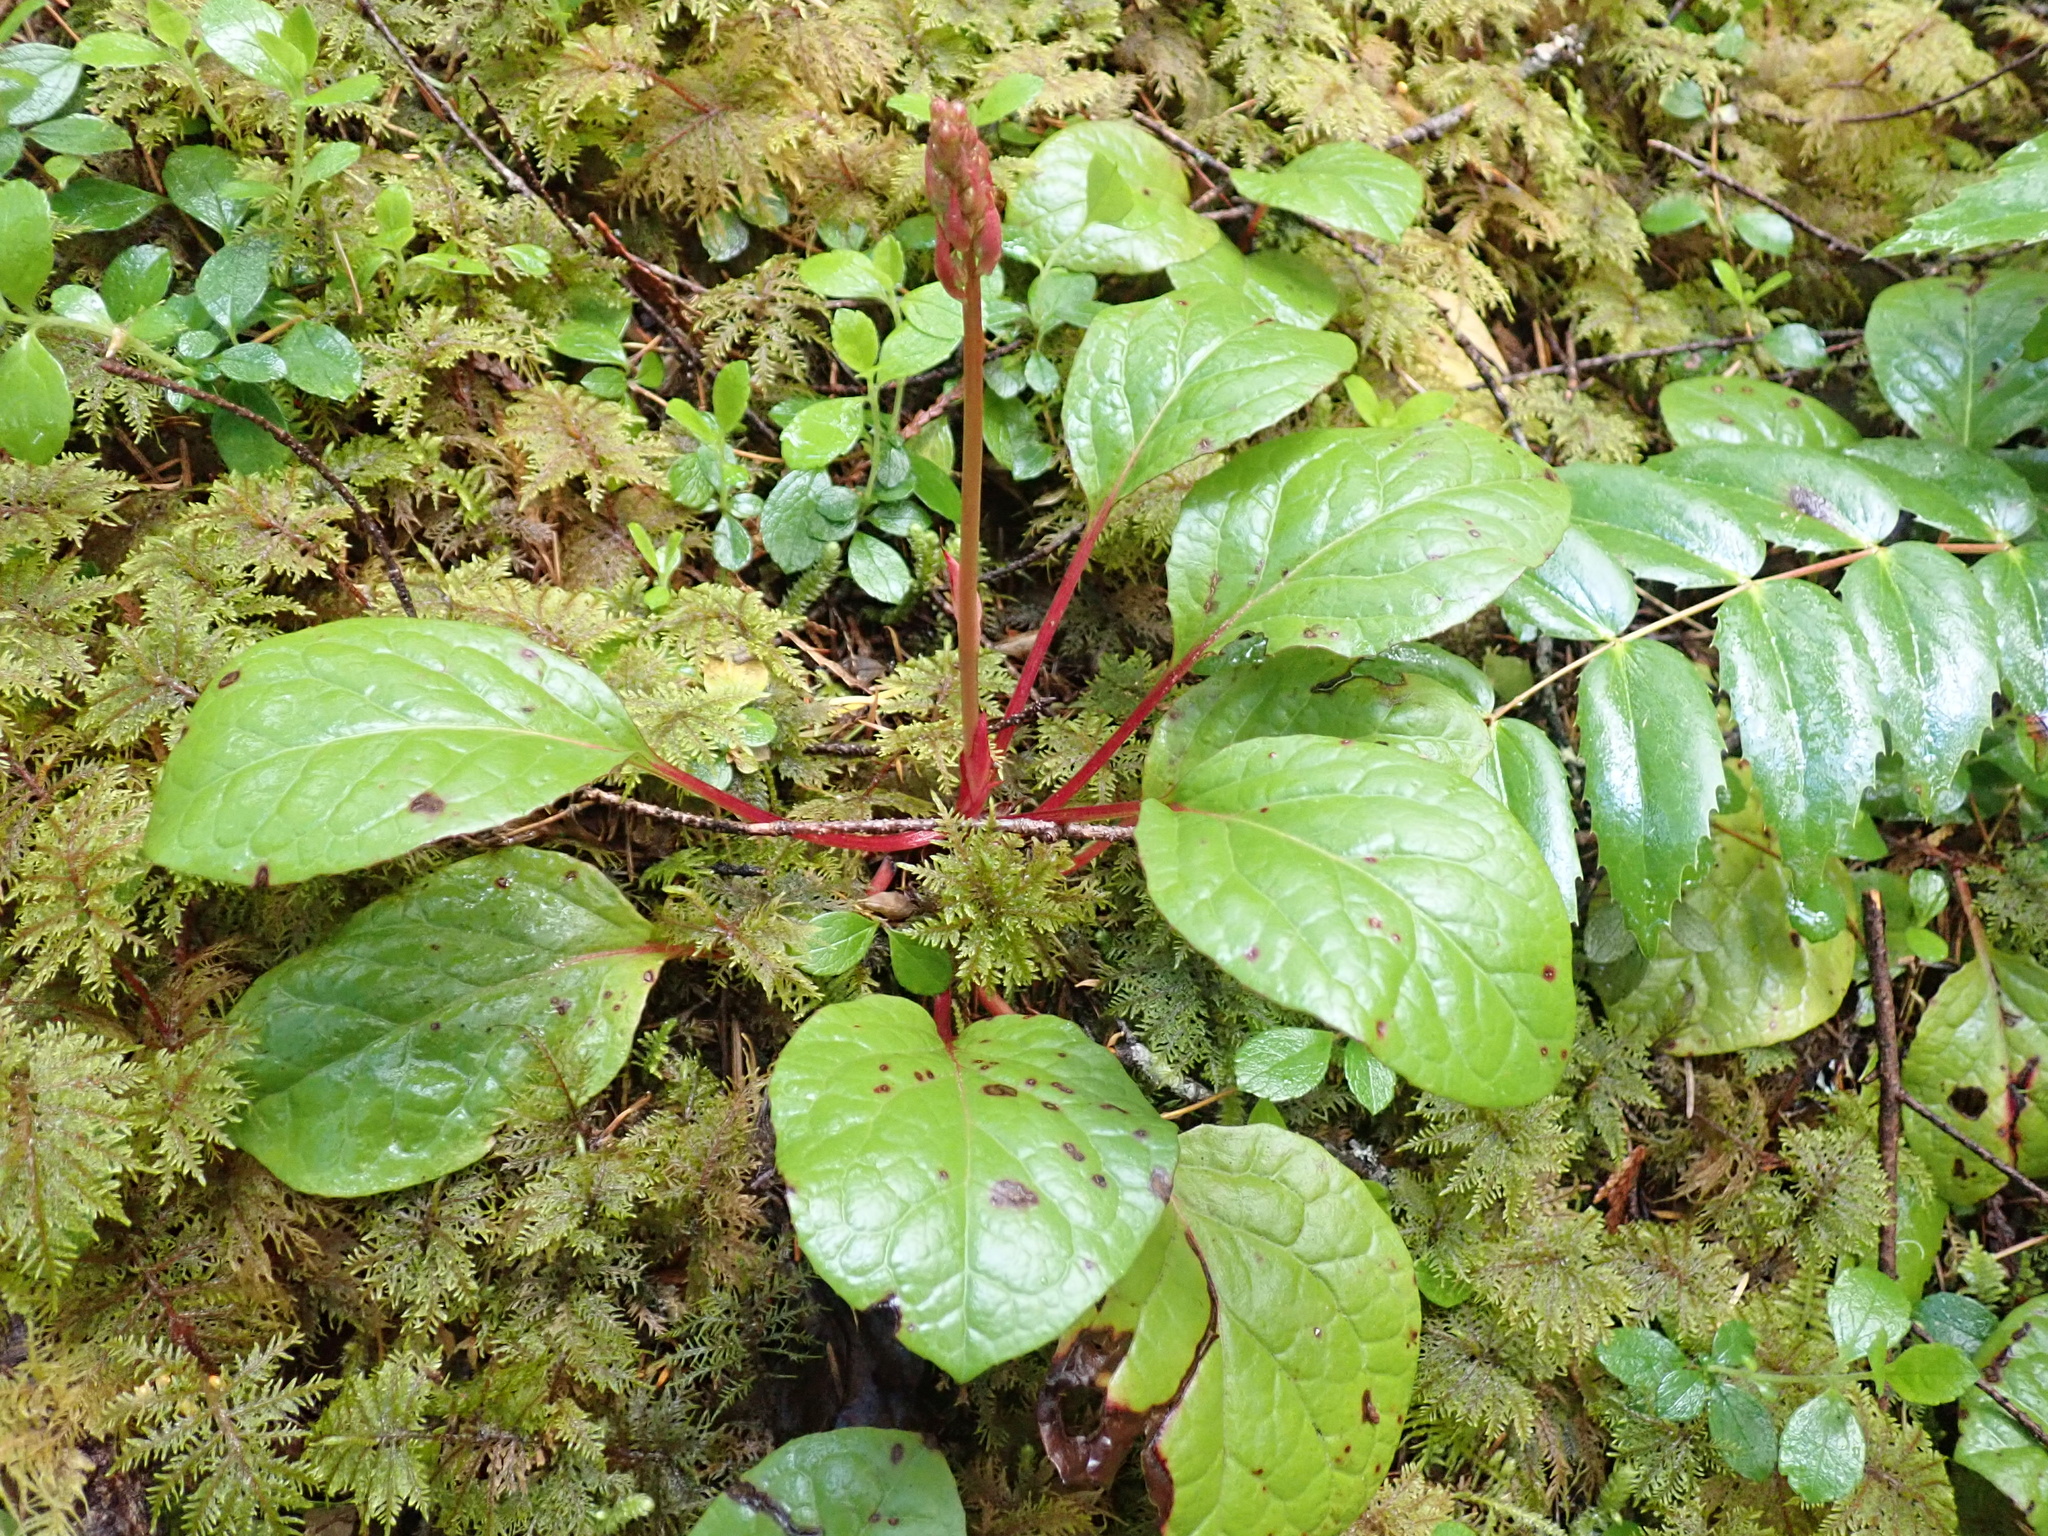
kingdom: Plantae
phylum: Tracheophyta
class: Magnoliopsida
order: Ericales
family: Ericaceae
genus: Pyrola
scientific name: Pyrola asarifolia
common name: Bog wintergreen
